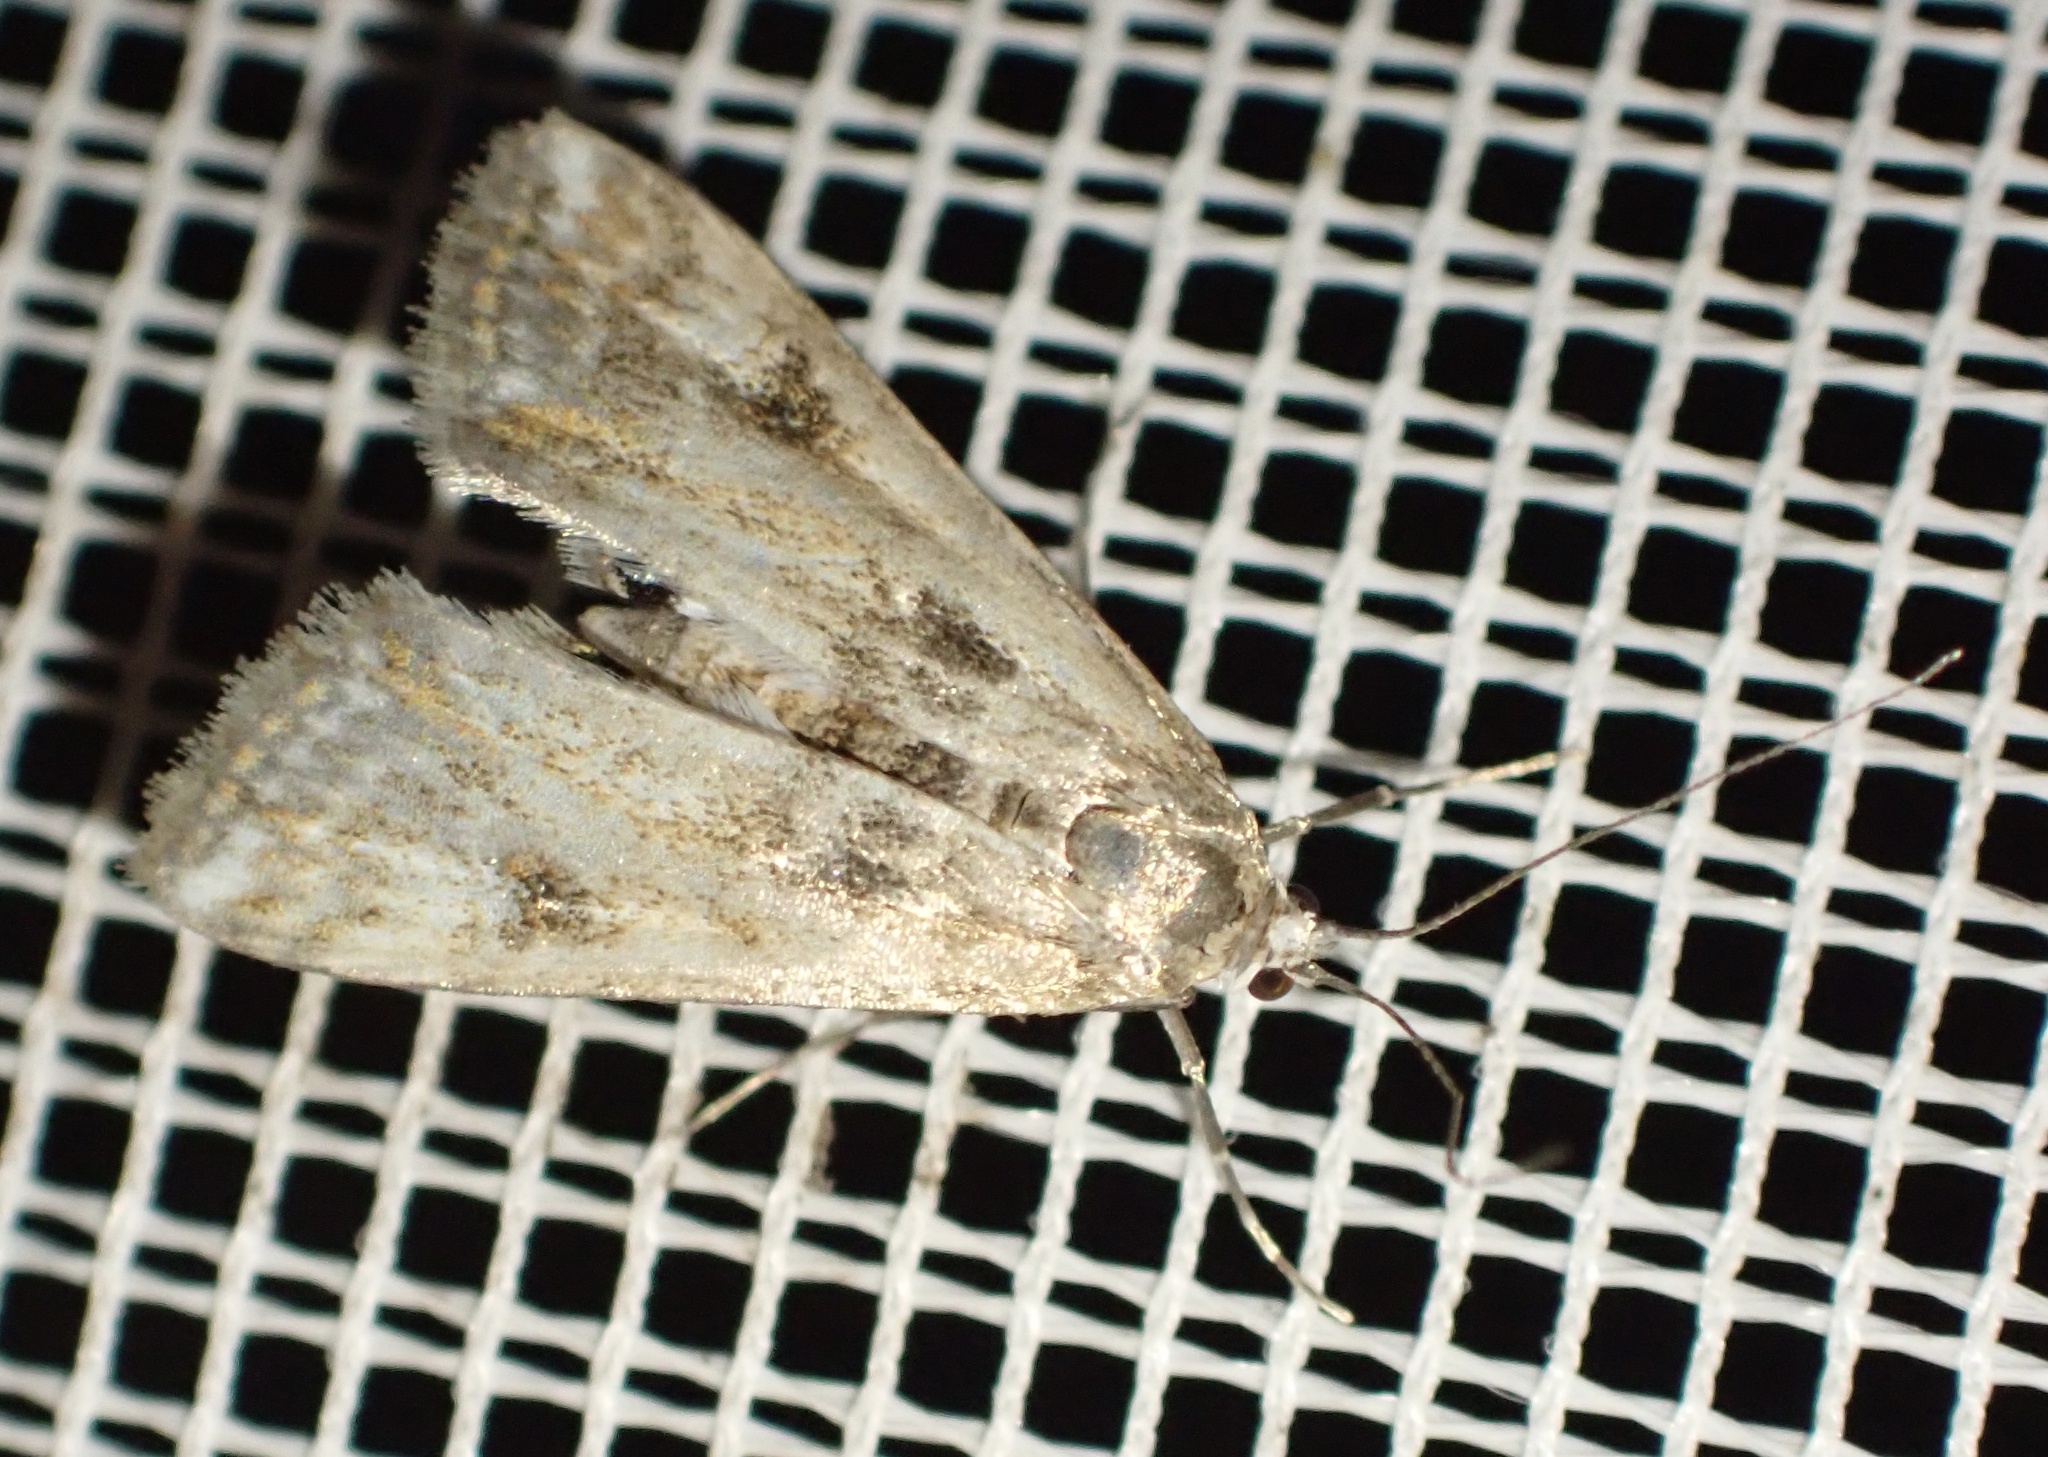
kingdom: Animalia
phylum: Arthropoda
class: Insecta
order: Lepidoptera
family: Crambidae
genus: Cataclysta
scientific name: Cataclysta lemnata
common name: Small china-mark
